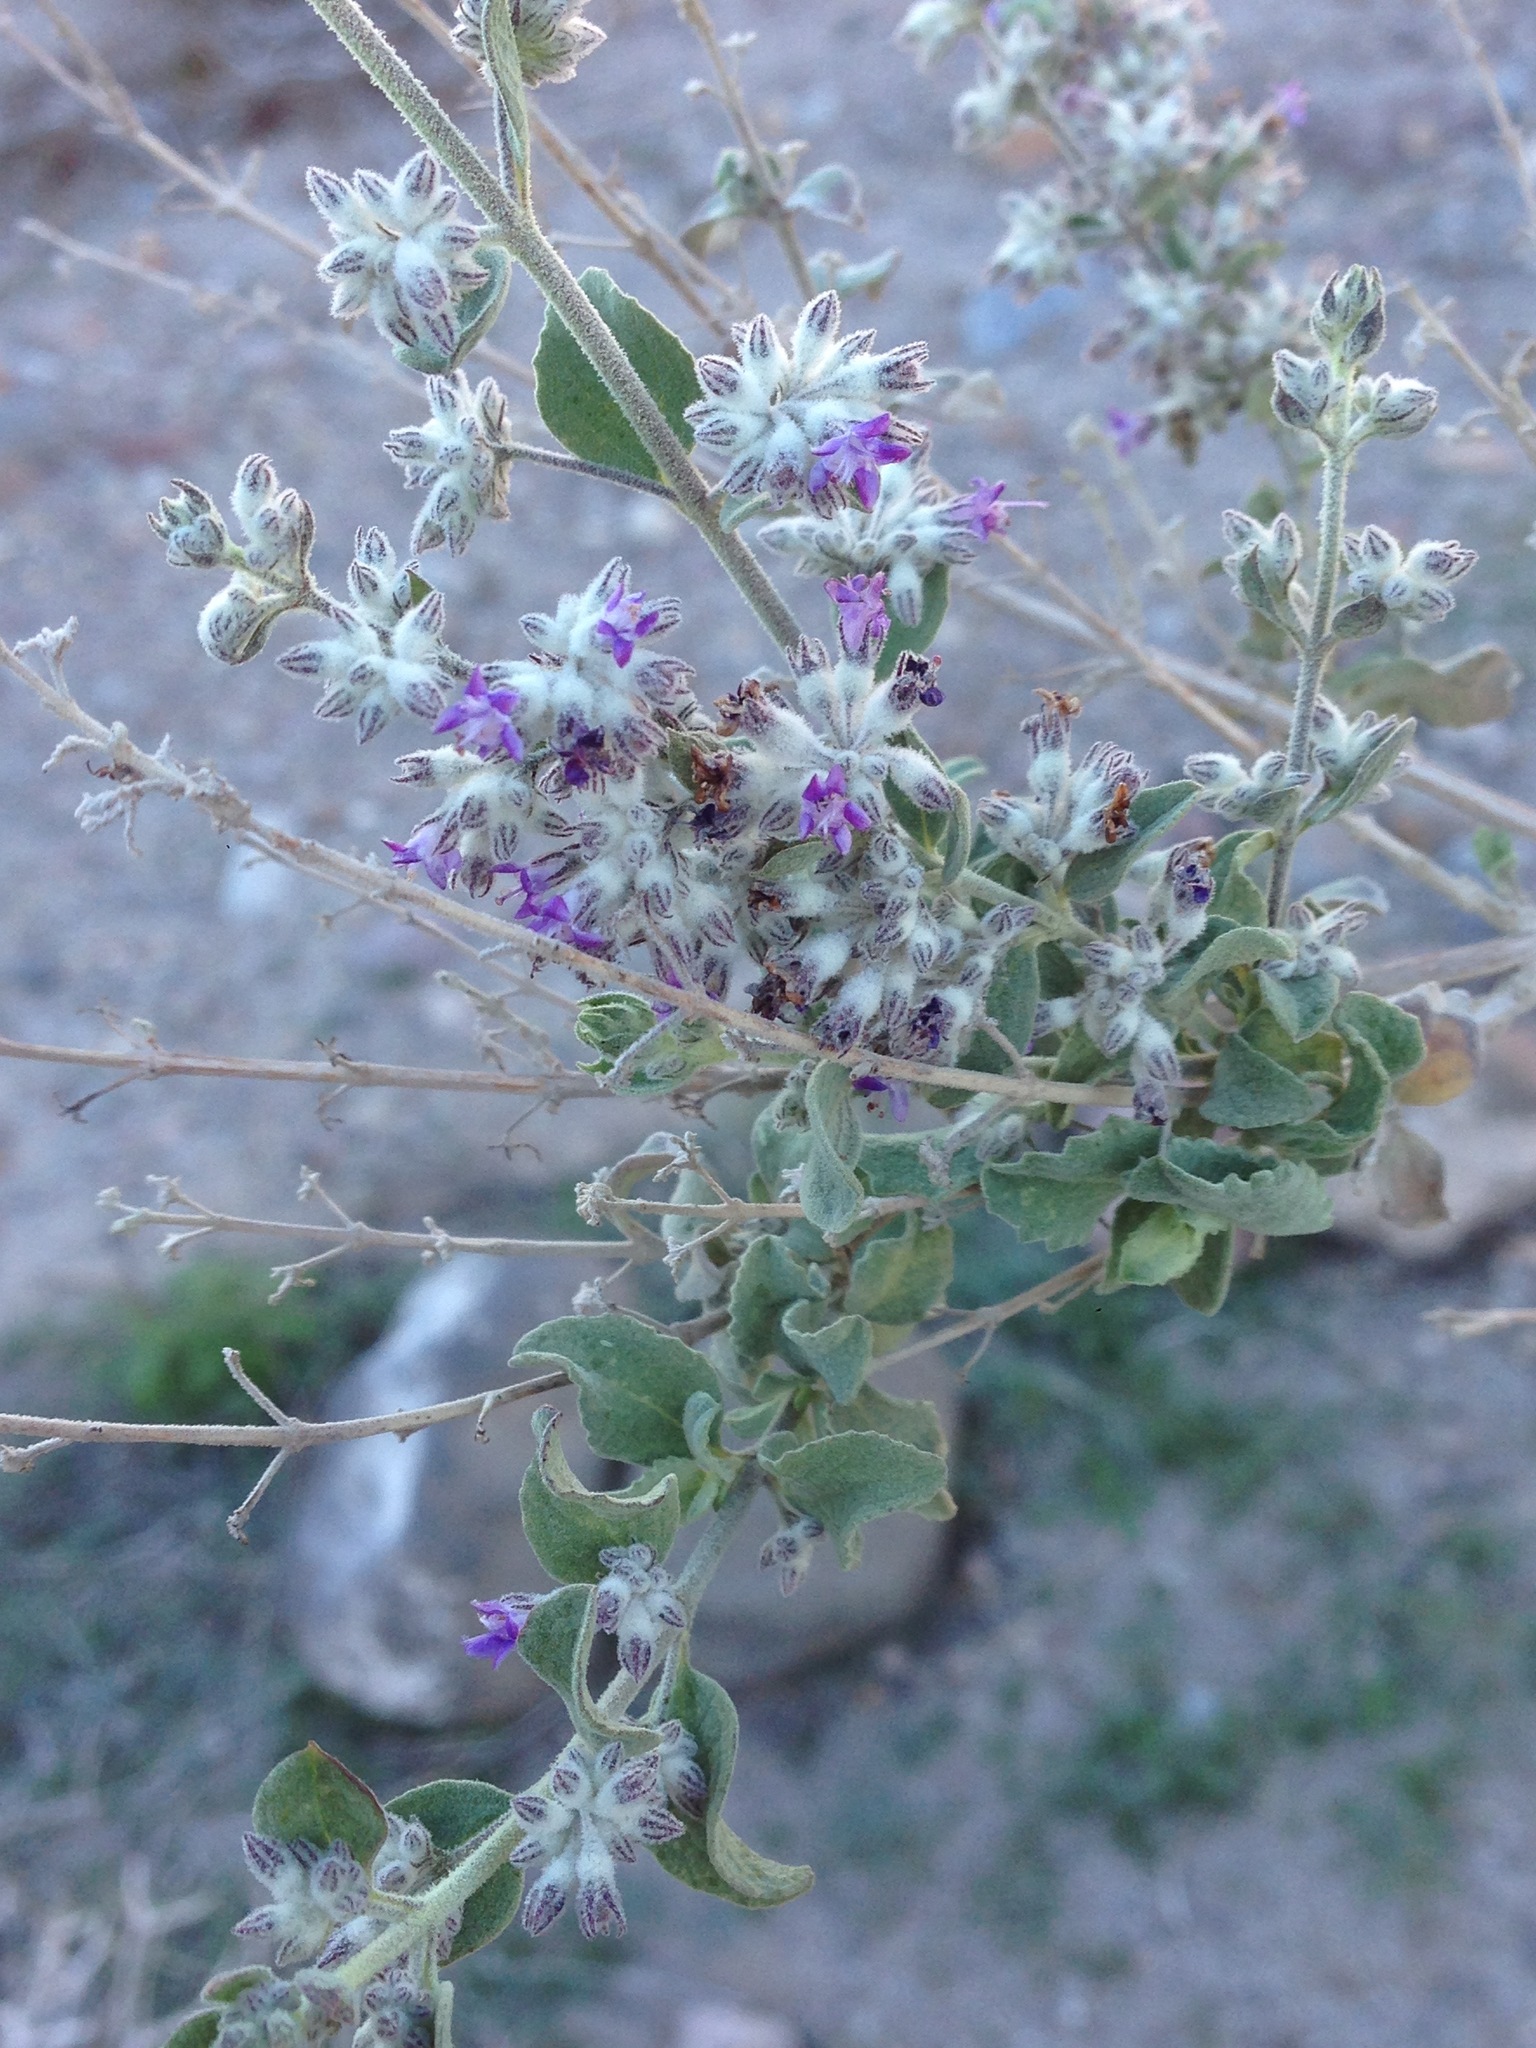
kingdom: Plantae
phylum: Tracheophyta
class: Magnoliopsida
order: Lamiales
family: Lamiaceae
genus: Condea
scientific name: Condea emoryi
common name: Chia
